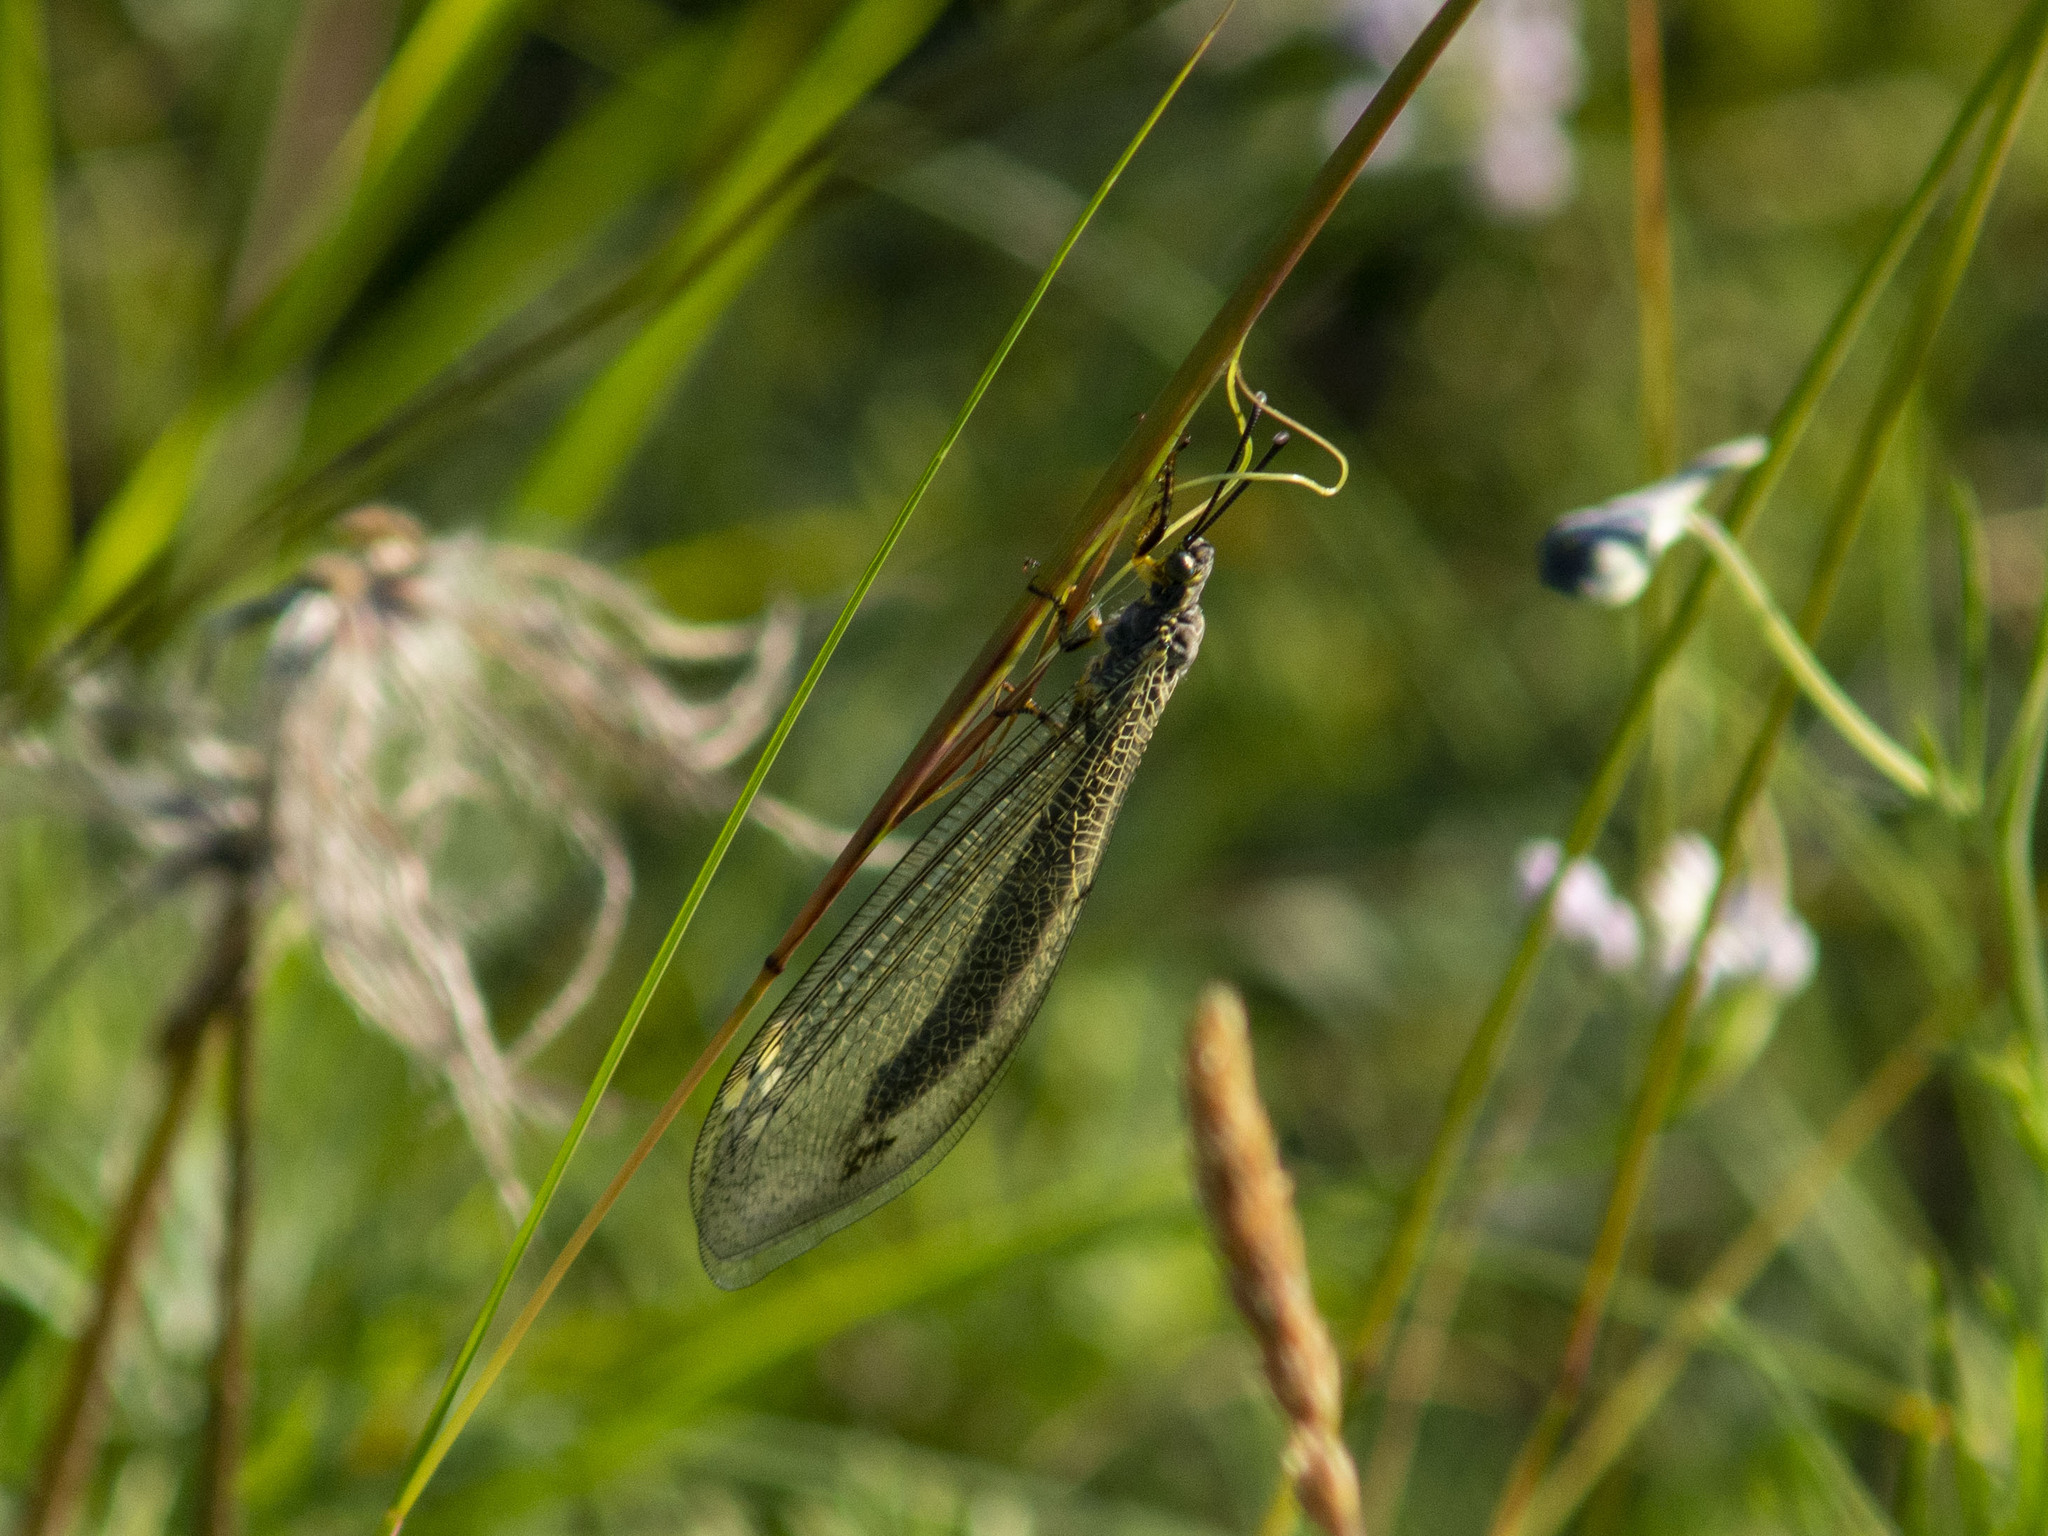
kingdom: Animalia
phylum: Arthropoda
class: Insecta
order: Neuroptera
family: Myrmeleontidae
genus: Deutoleon
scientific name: Deutoleon lineatus
